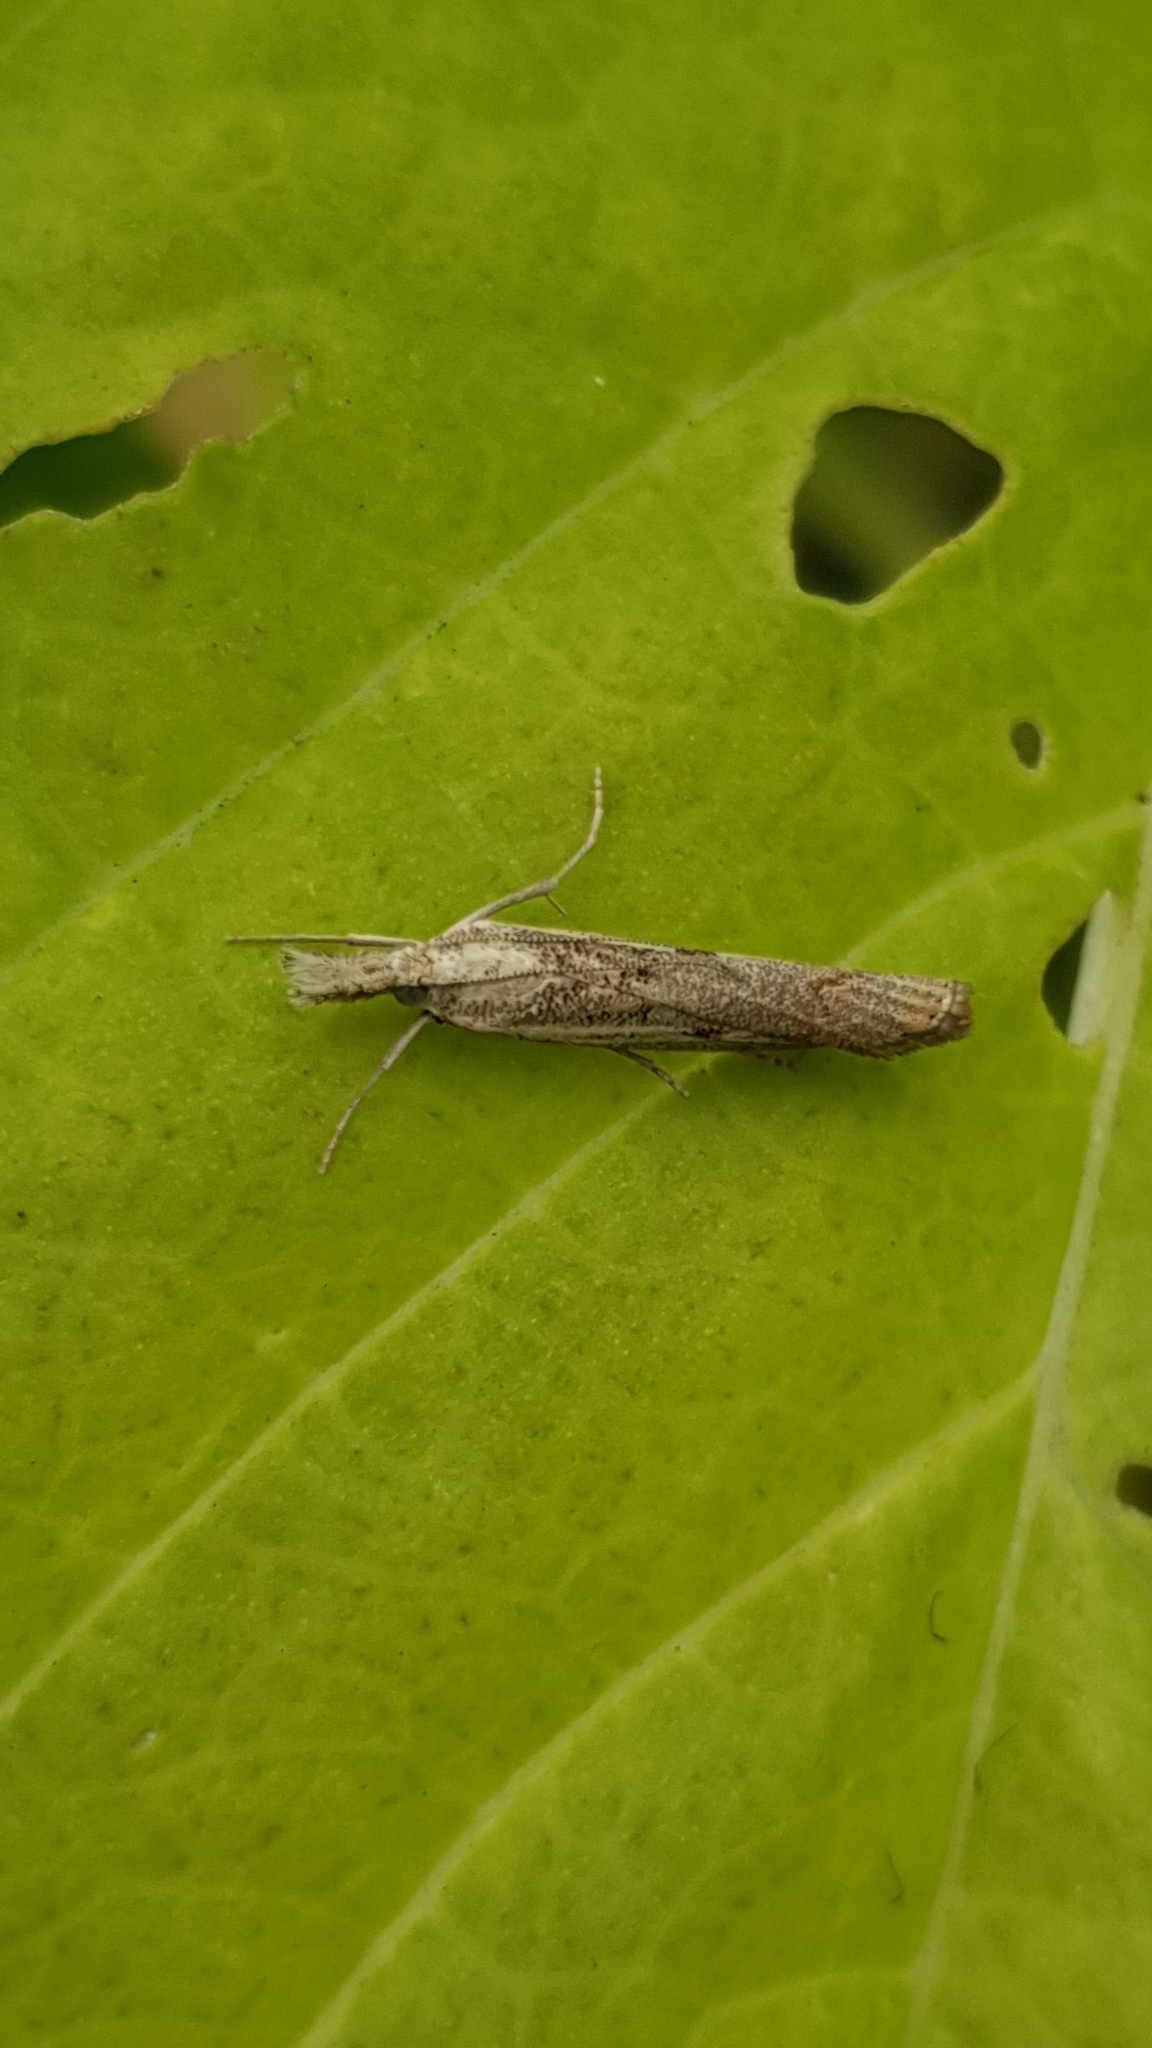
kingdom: Animalia
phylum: Arthropoda
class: Insecta
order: Lepidoptera
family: Crambidae
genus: Pediasia
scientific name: Pediasia contaminella
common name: Waste grass-veneer
